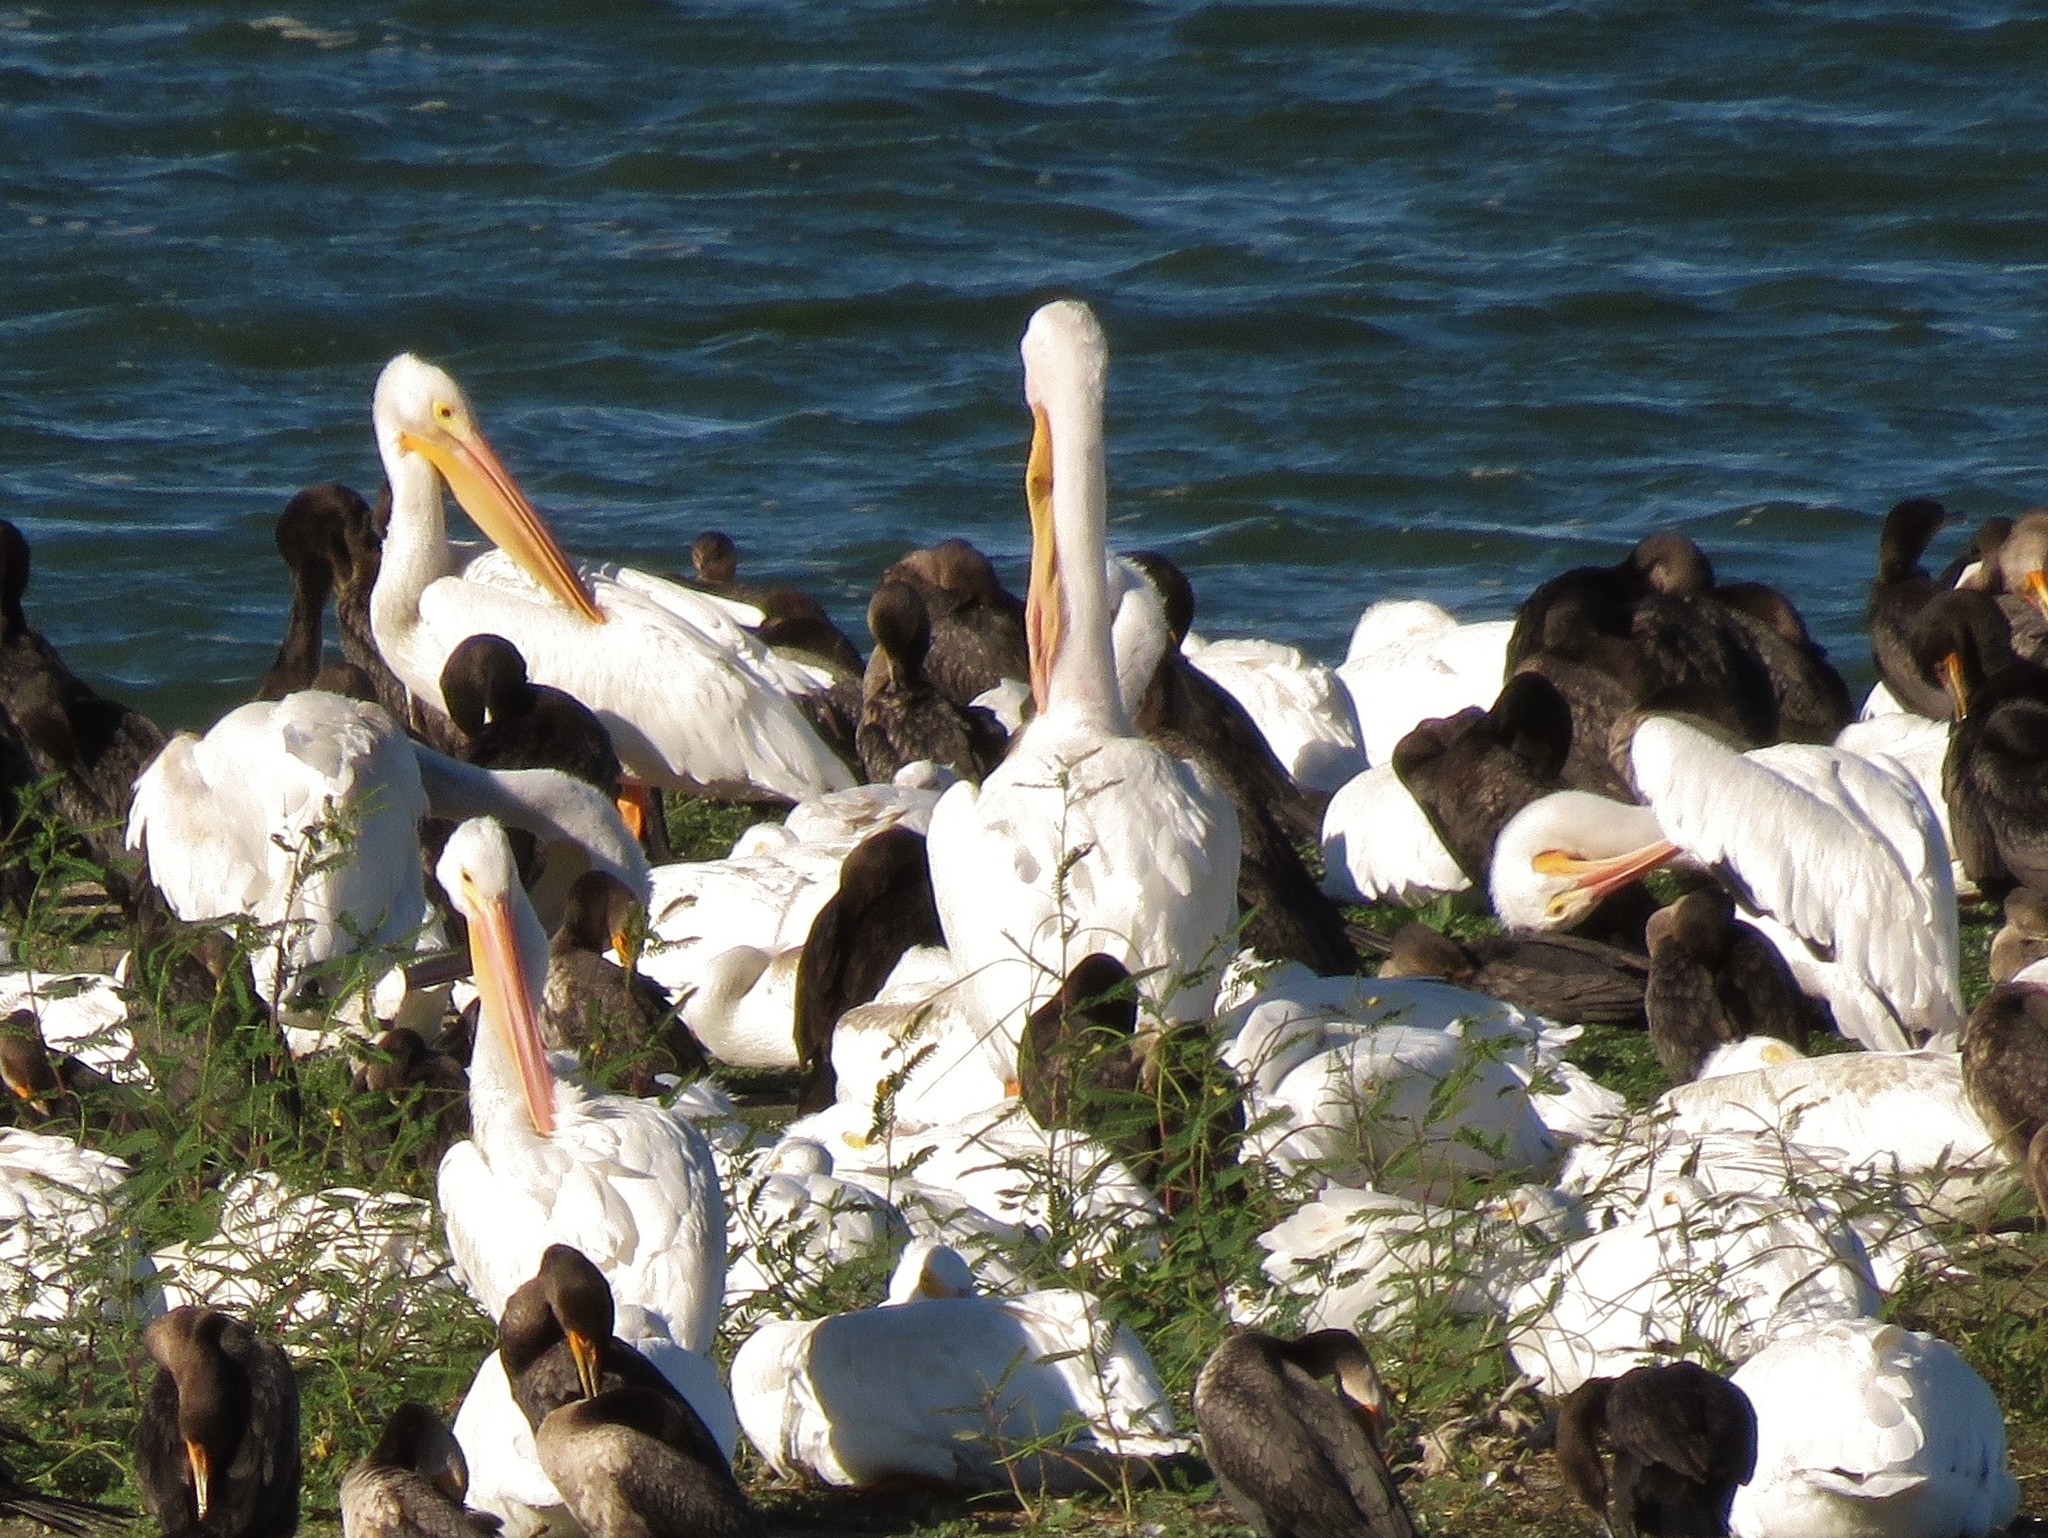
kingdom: Animalia
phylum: Chordata
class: Aves
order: Pelecaniformes
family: Pelecanidae
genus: Pelecanus
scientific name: Pelecanus erythrorhynchos
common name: American white pelican
